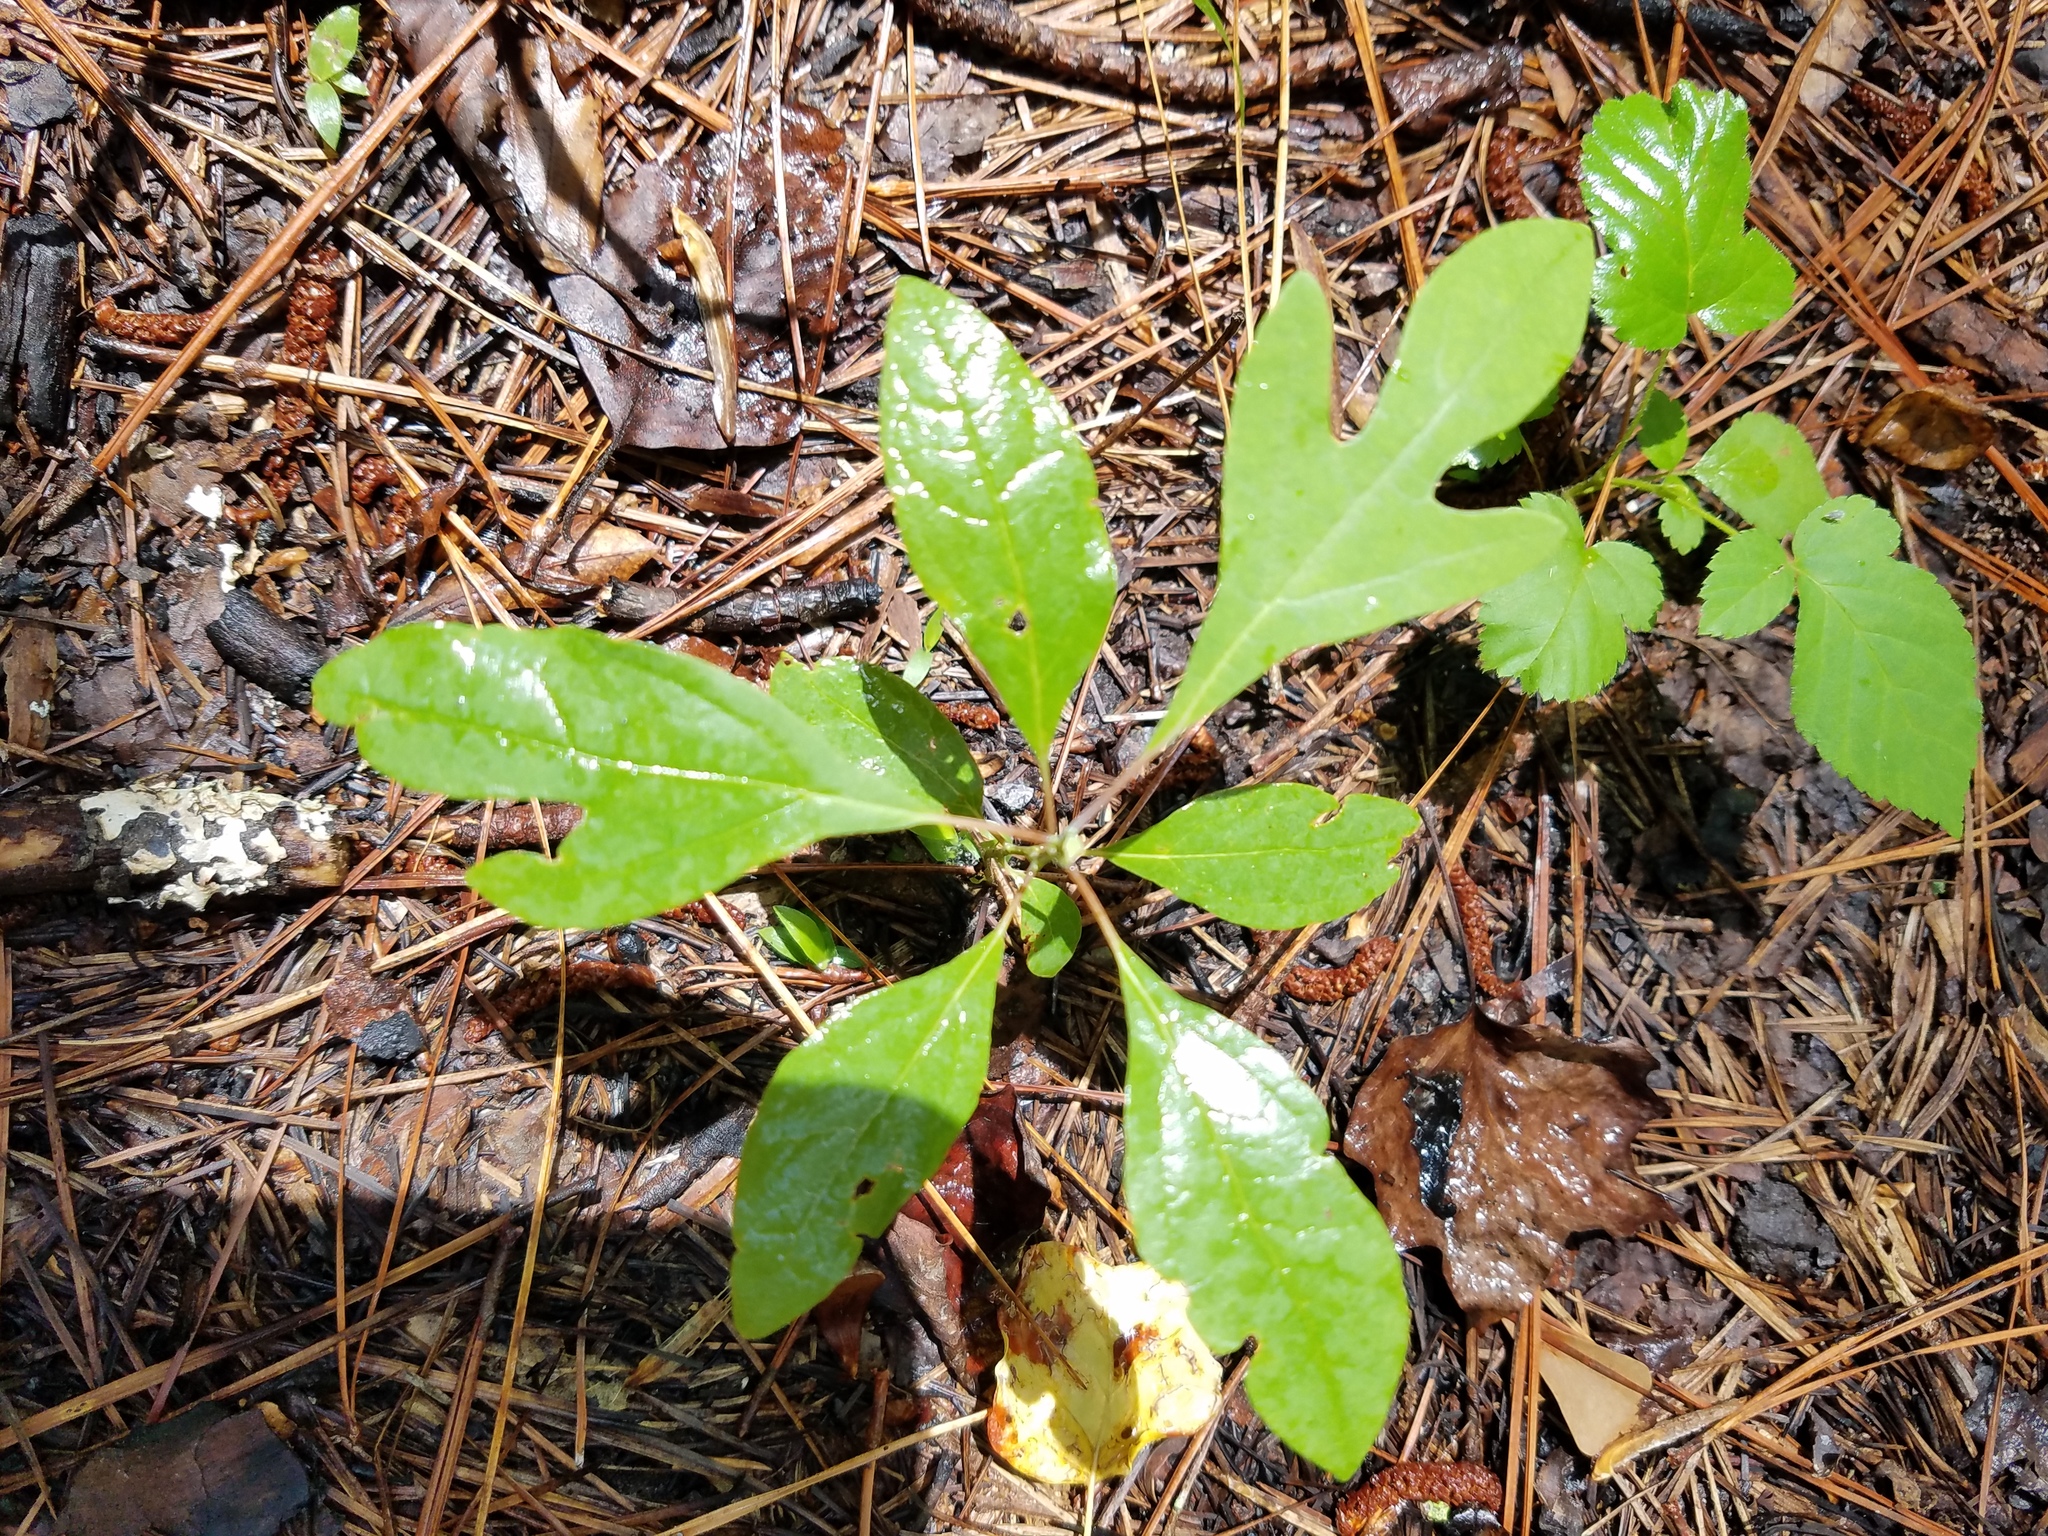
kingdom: Plantae
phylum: Tracheophyta
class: Magnoliopsida
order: Laurales
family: Lauraceae
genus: Sassafras
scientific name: Sassafras albidum
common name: Sassafras
